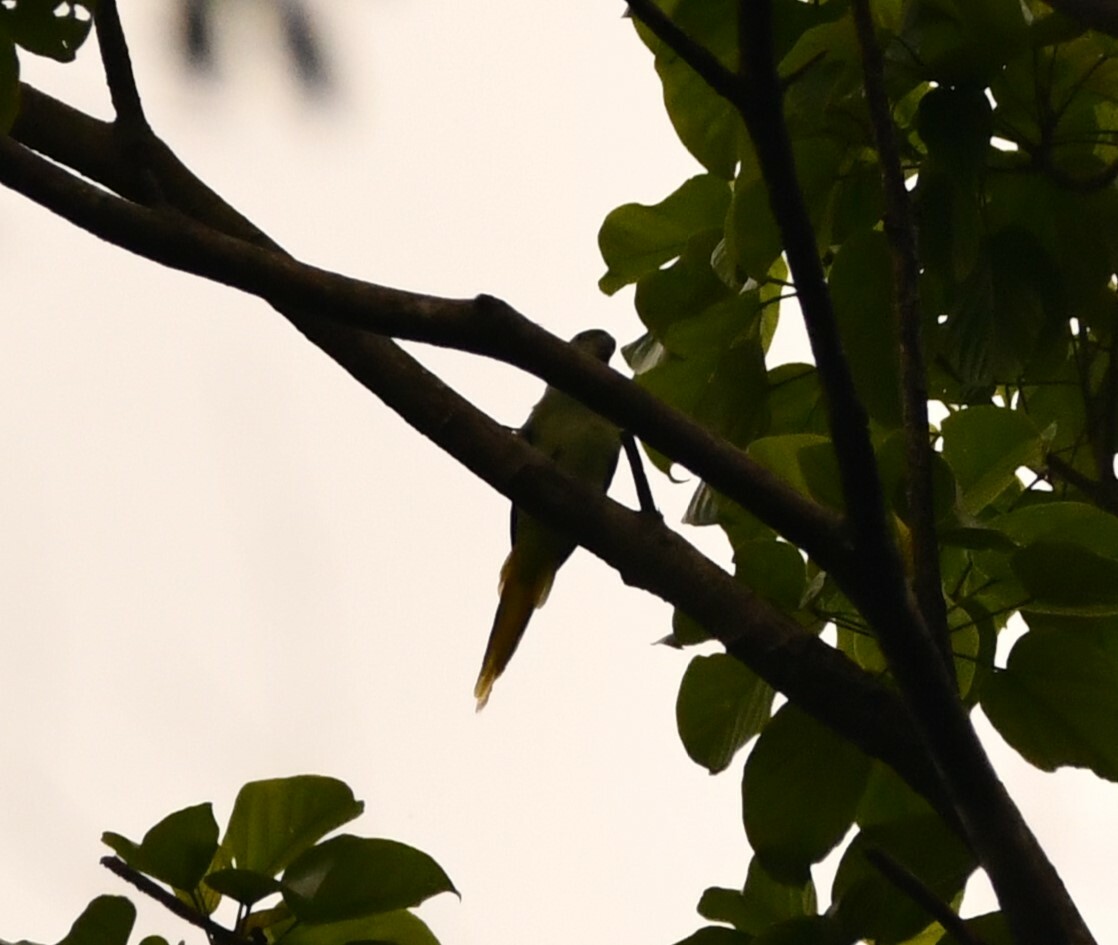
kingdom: Animalia
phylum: Chordata
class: Aves
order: Psittaciformes
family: Psittacidae
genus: Psittacula
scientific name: Psittacula columboides
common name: Blue-winged parakeet
